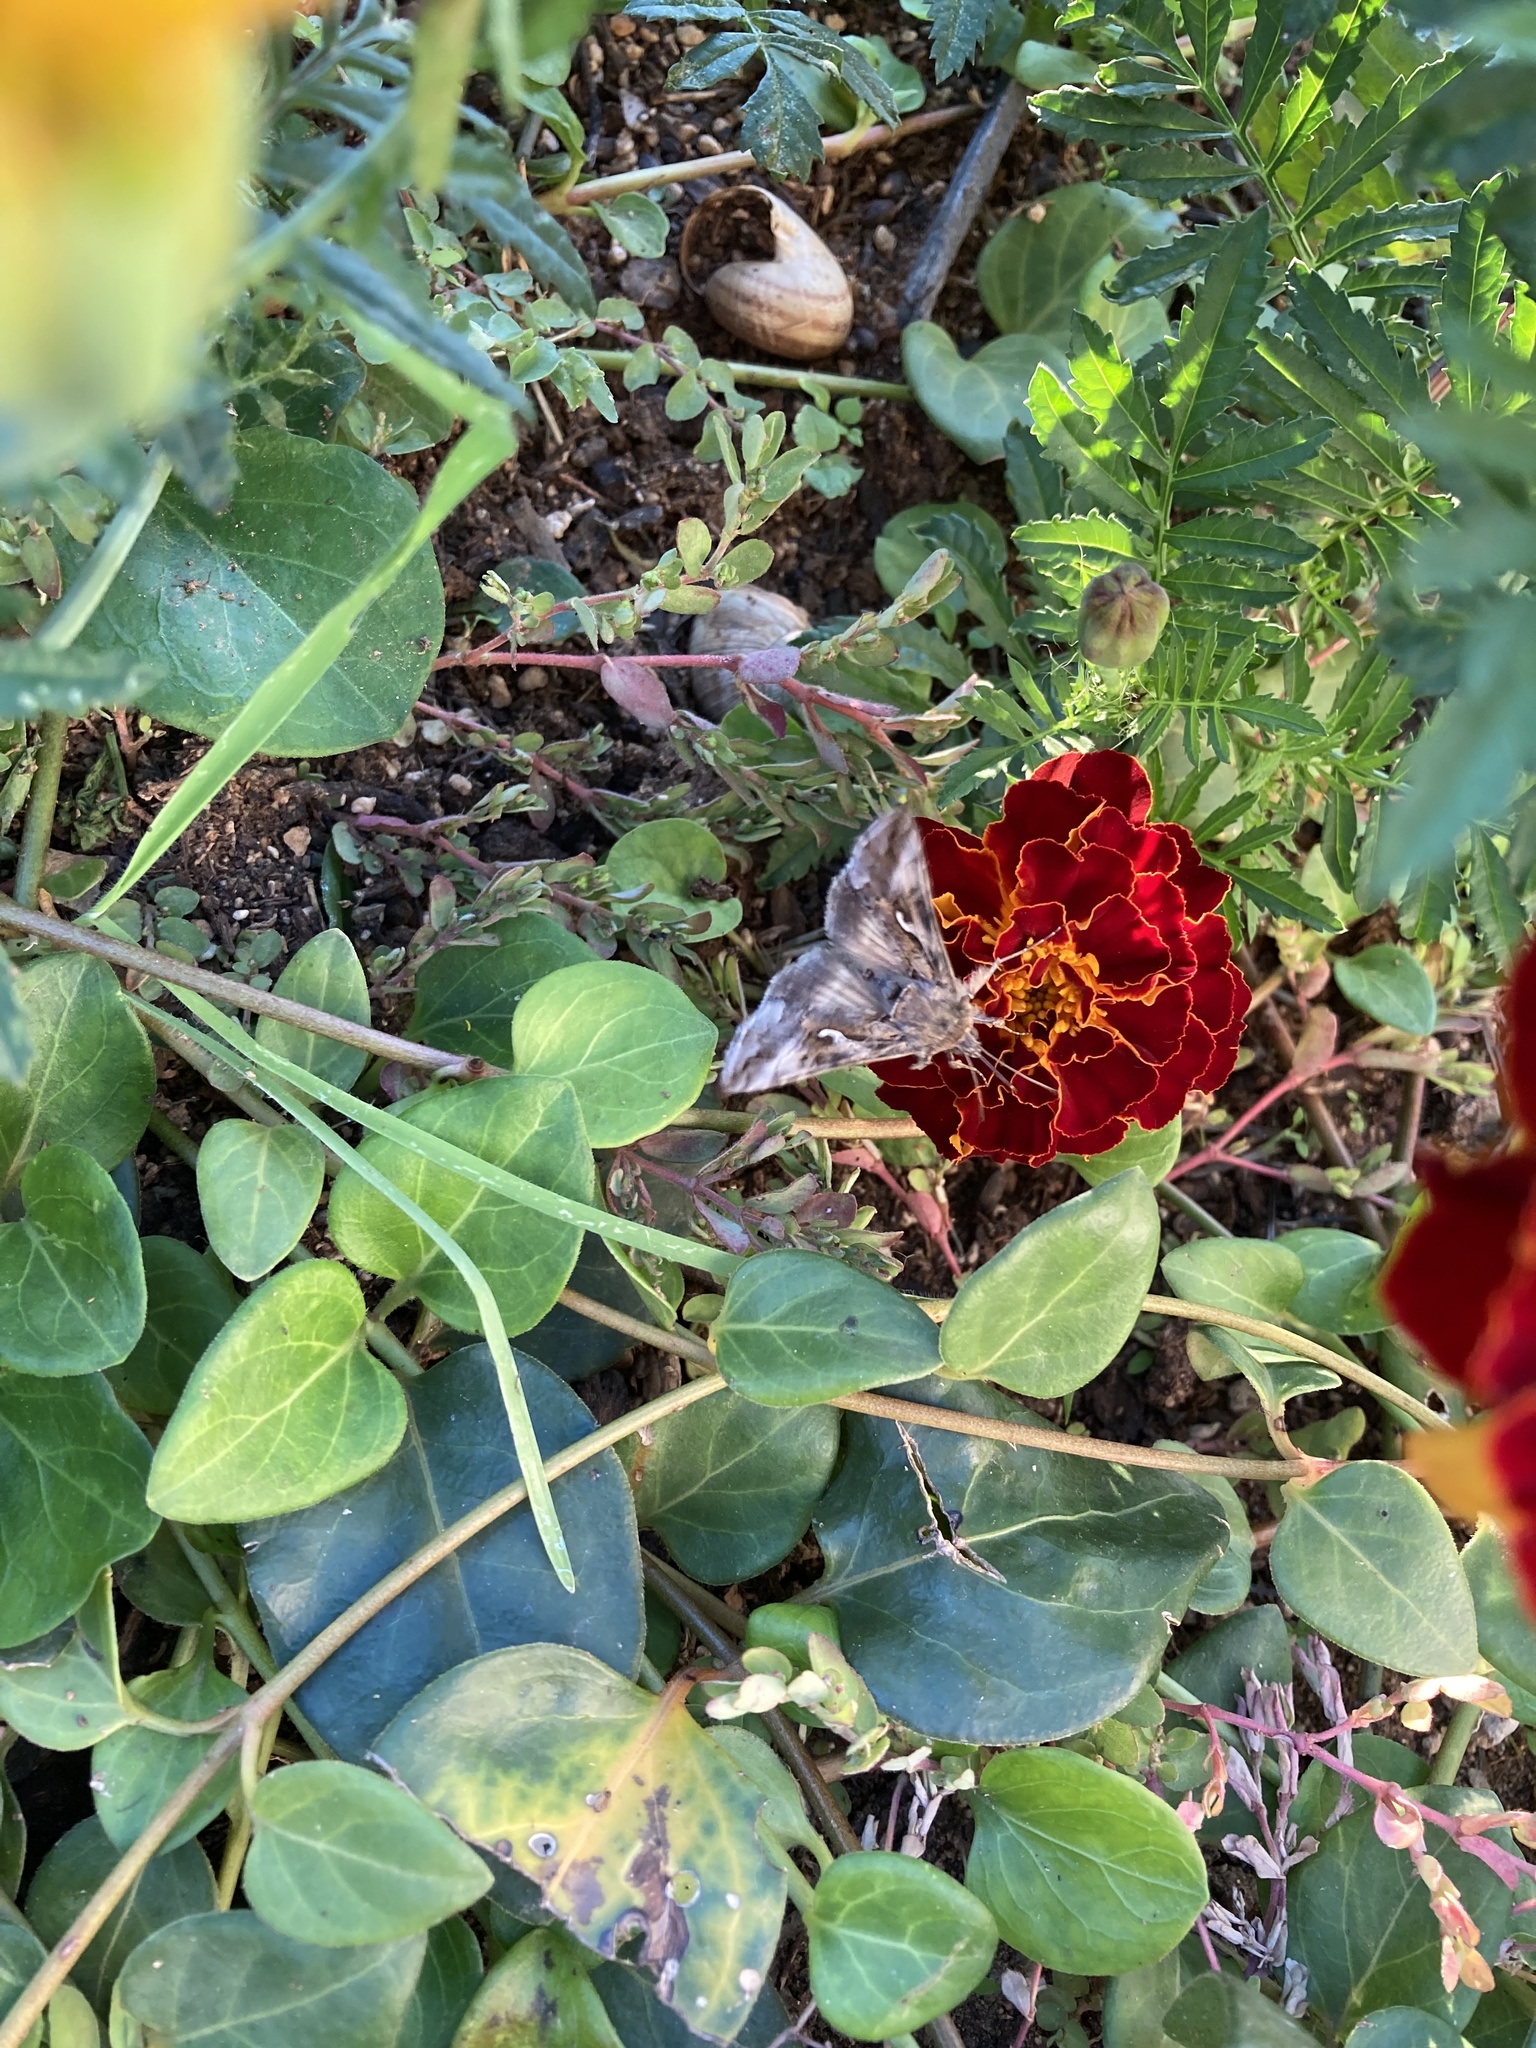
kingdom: Animalia
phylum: Arthropoda
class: Insecta
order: Lepidoptera
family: Noctuidae
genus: Autographa
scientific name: Autographa gamma
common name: Silver y
